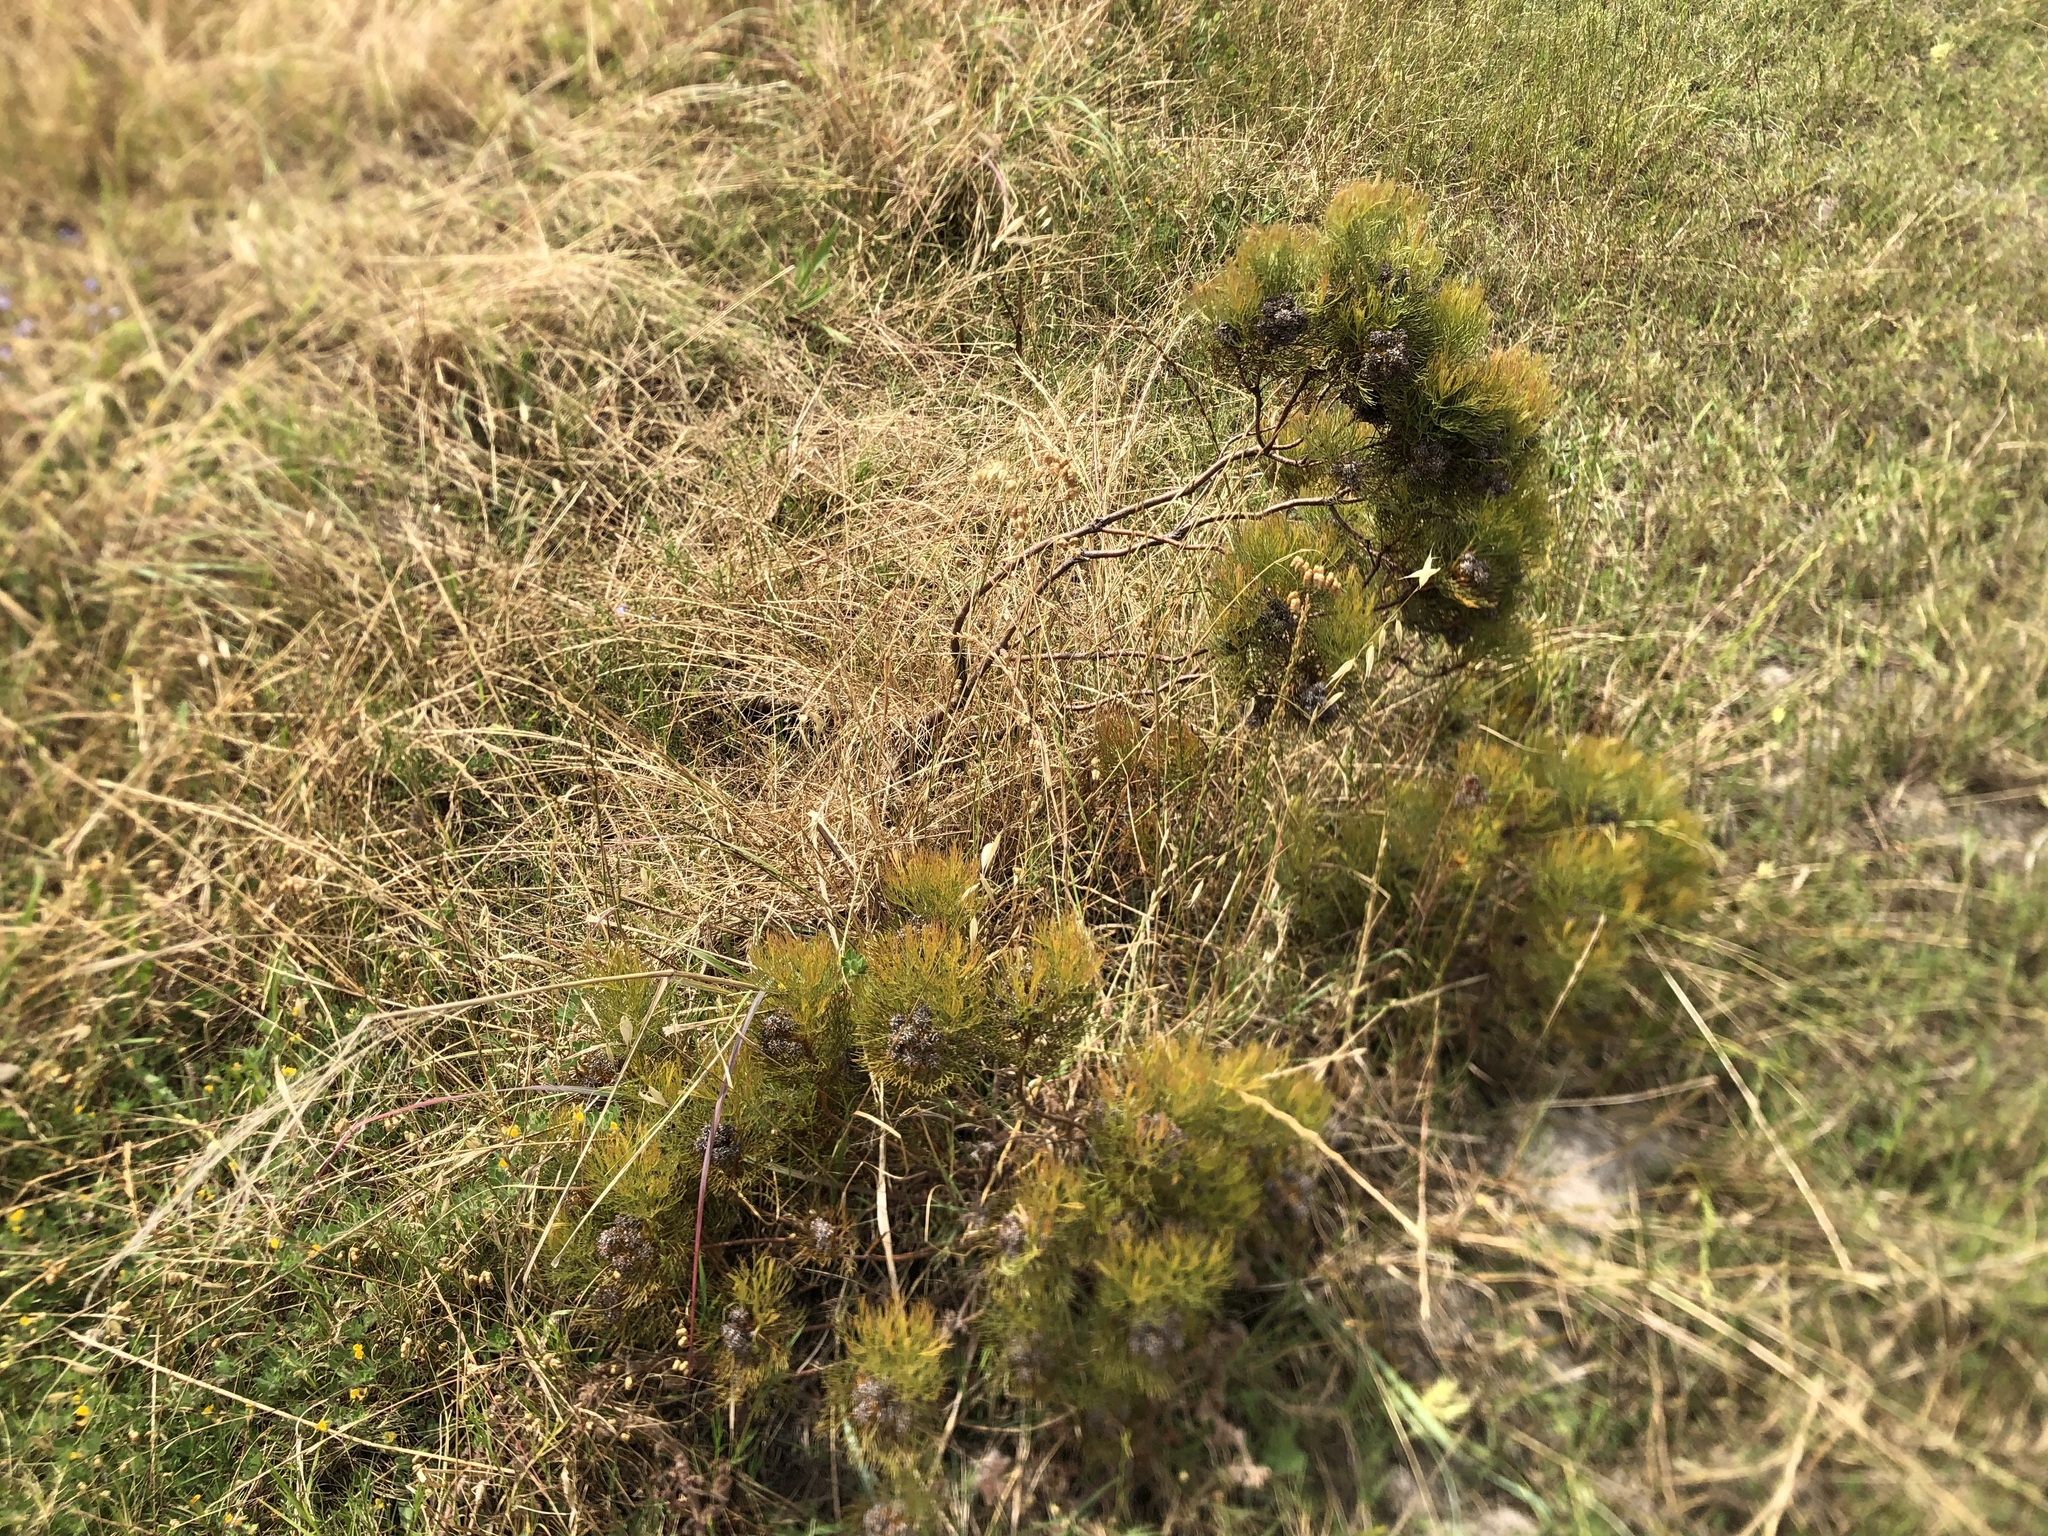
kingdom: Plantae
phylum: Tracheophyta
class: Magnoliopsida
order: Proteales
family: Proteaceae
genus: Serruria
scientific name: Serruria glomerata
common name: Cluster spiderhead
